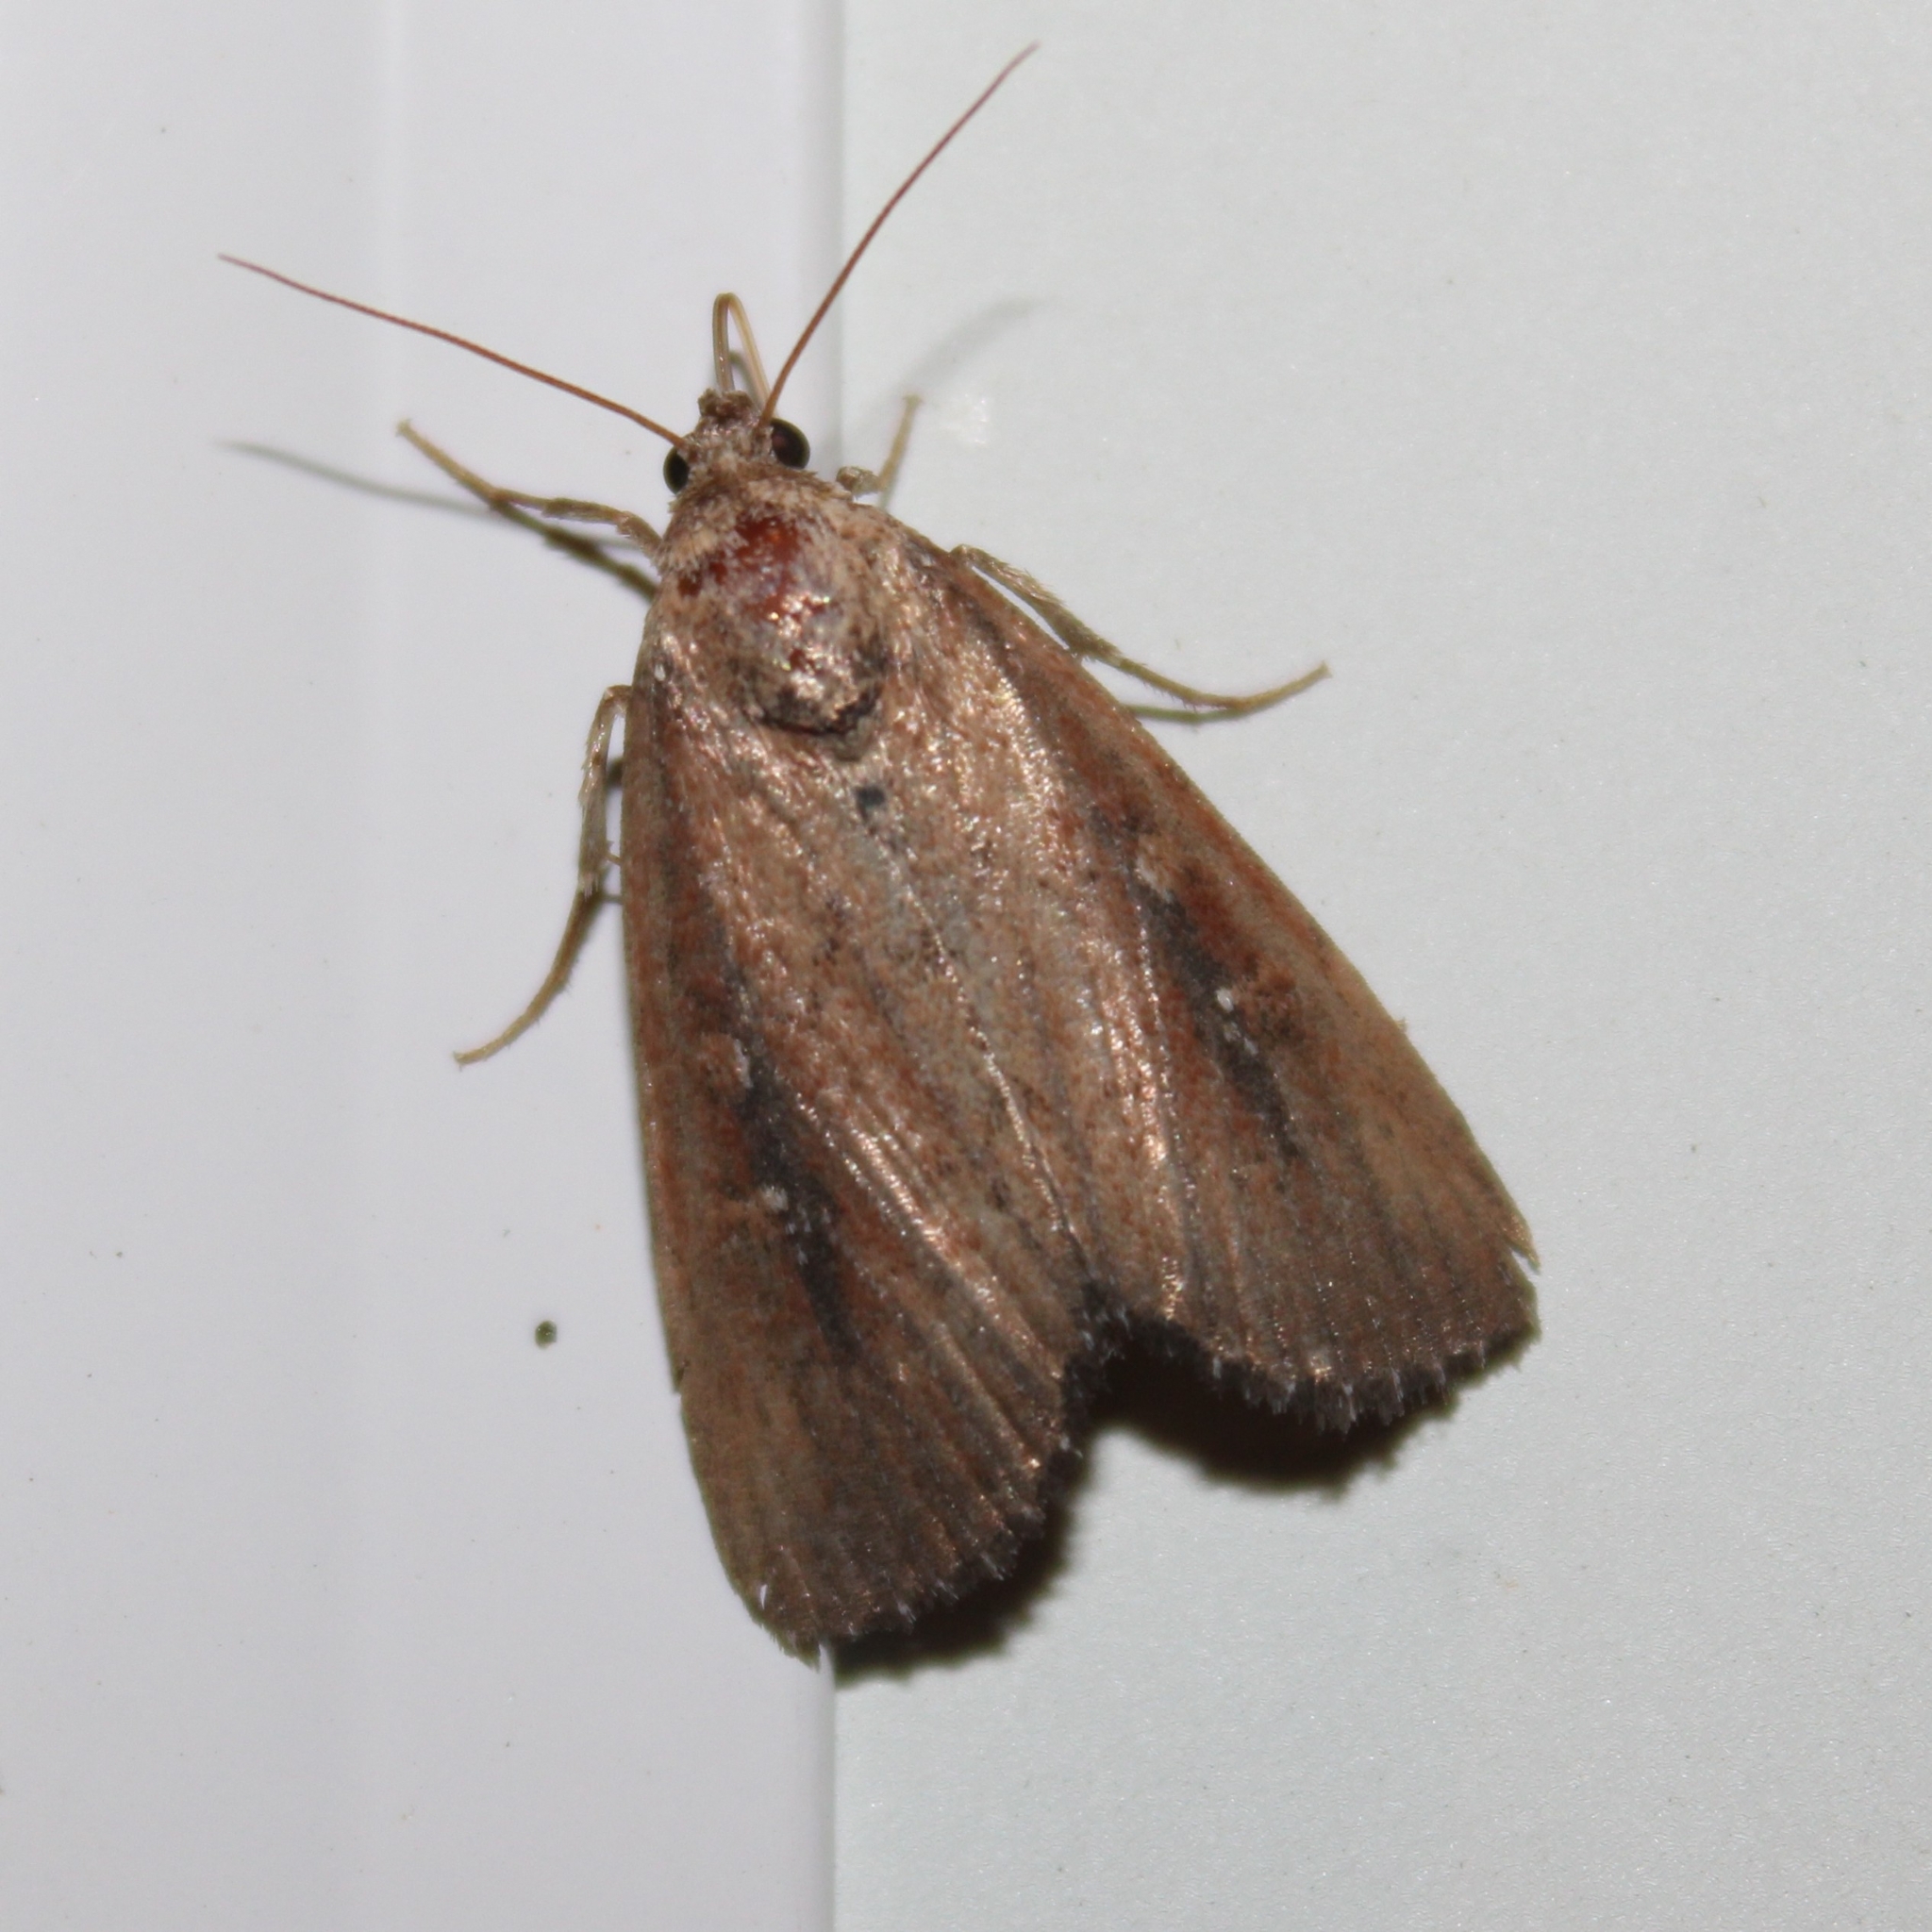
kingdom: Animalia
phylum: Arthropoda
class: Insecta
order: Lepidoptera
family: Noctuidae
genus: Condica
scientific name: Condica videns
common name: White-dotted groundling
